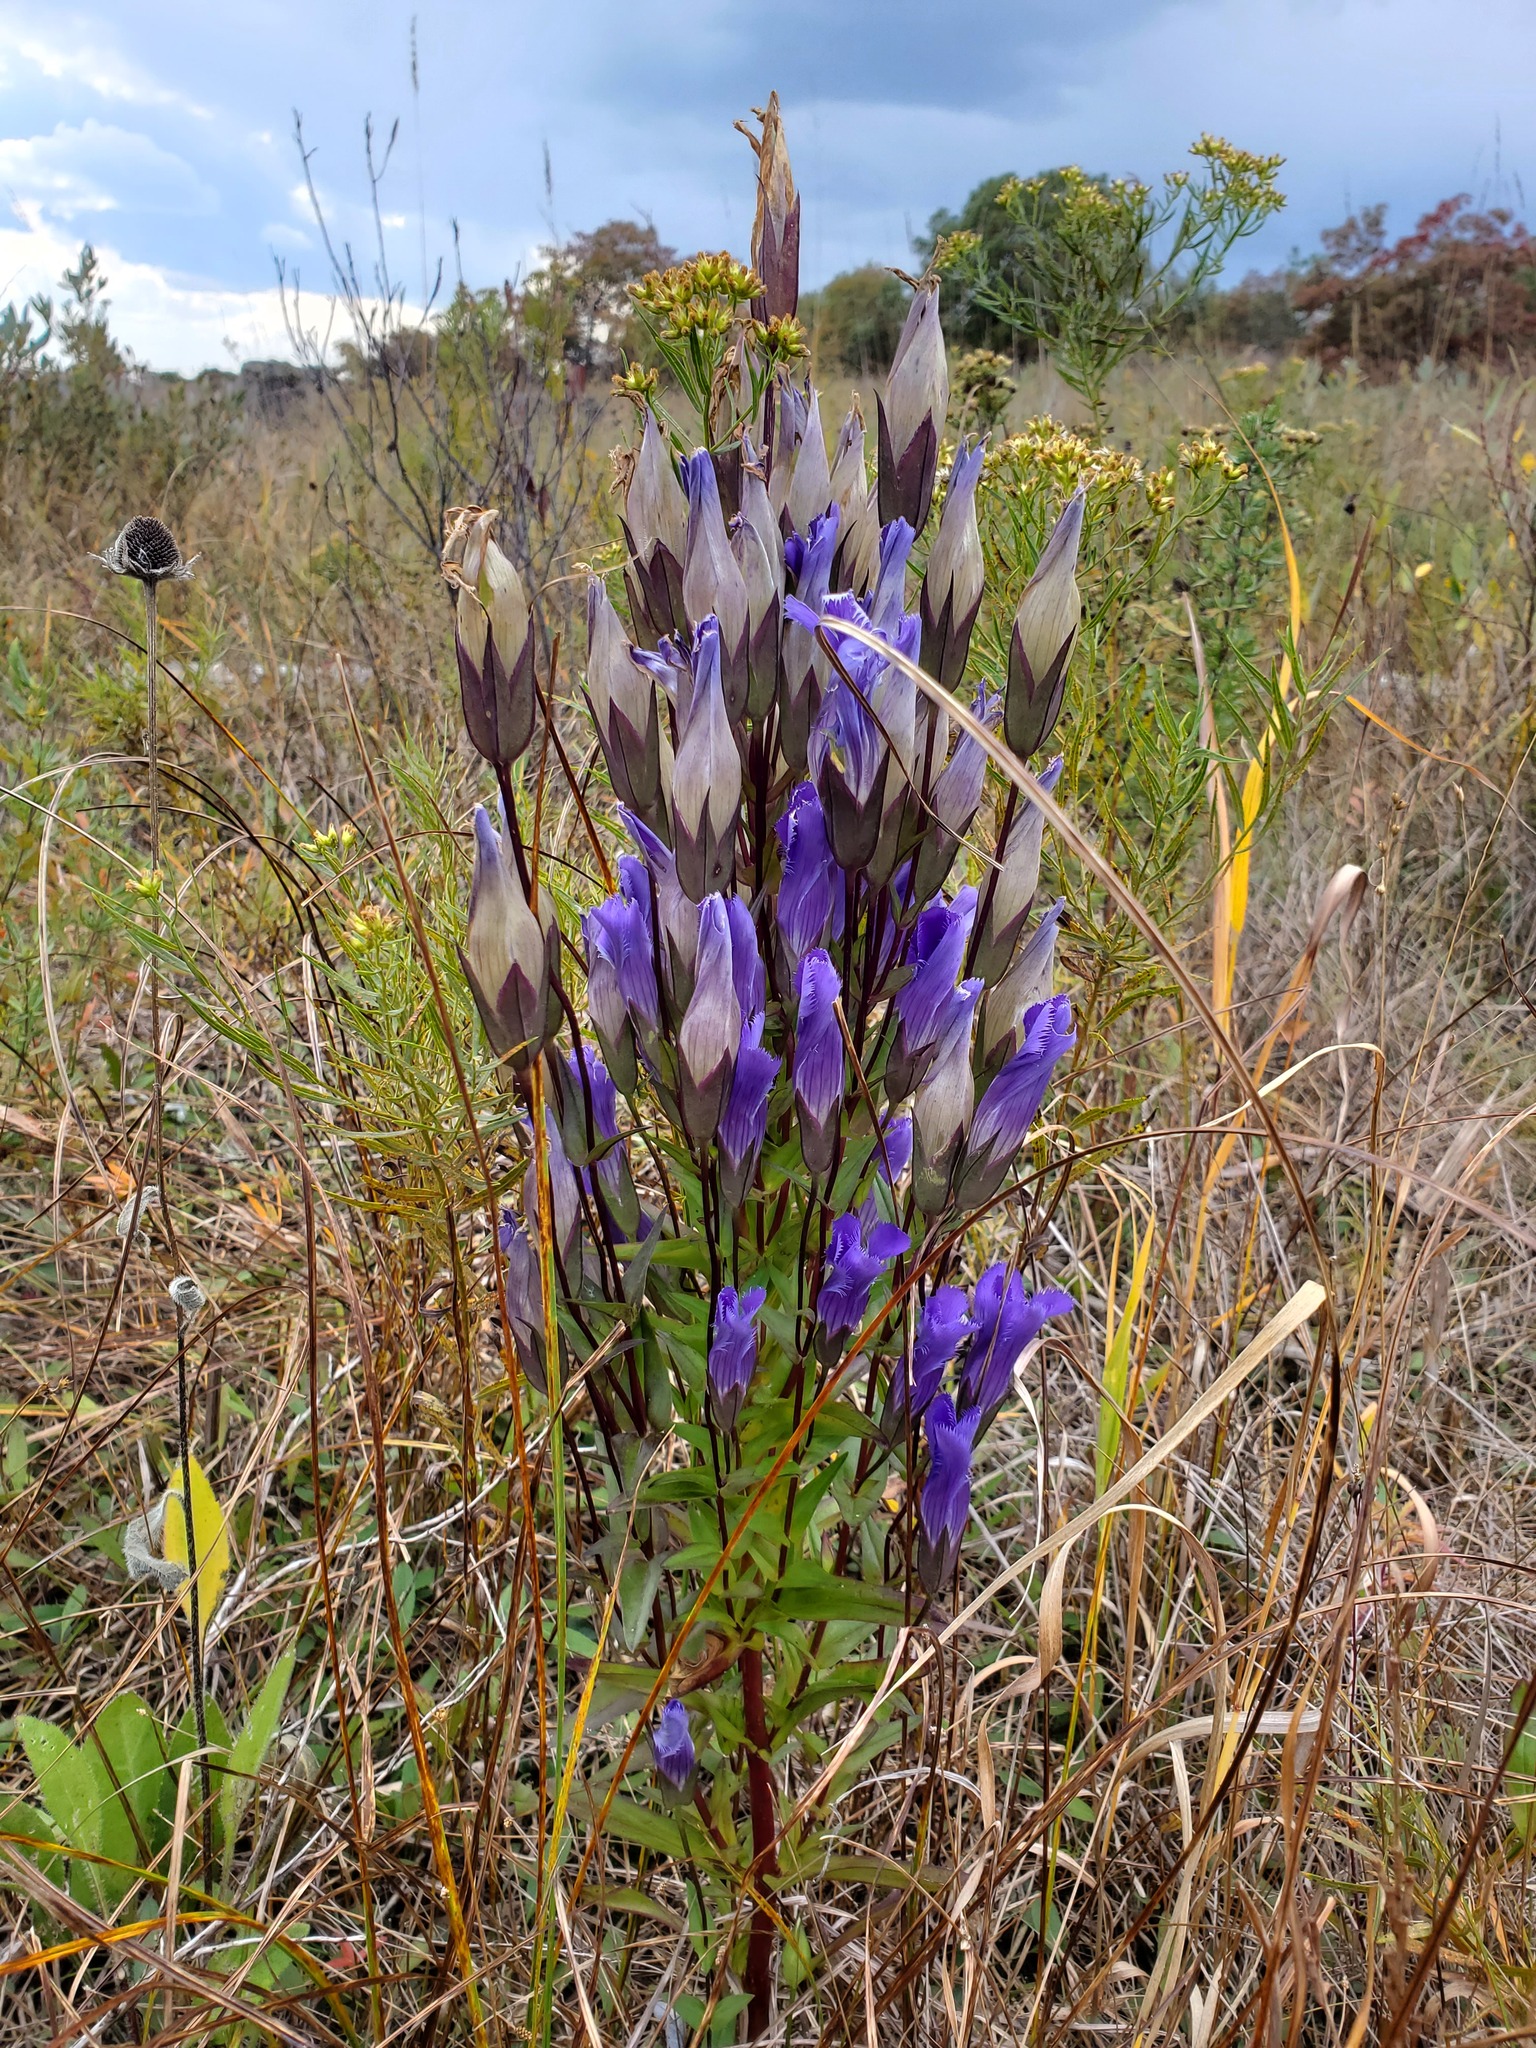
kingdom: Plantae
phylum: Tracheophyta
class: Magnoliopsida
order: Gentianales
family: Gentianaceae
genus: Gentianopsis
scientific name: Gentianopsis crinita
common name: Fringed-gentian
